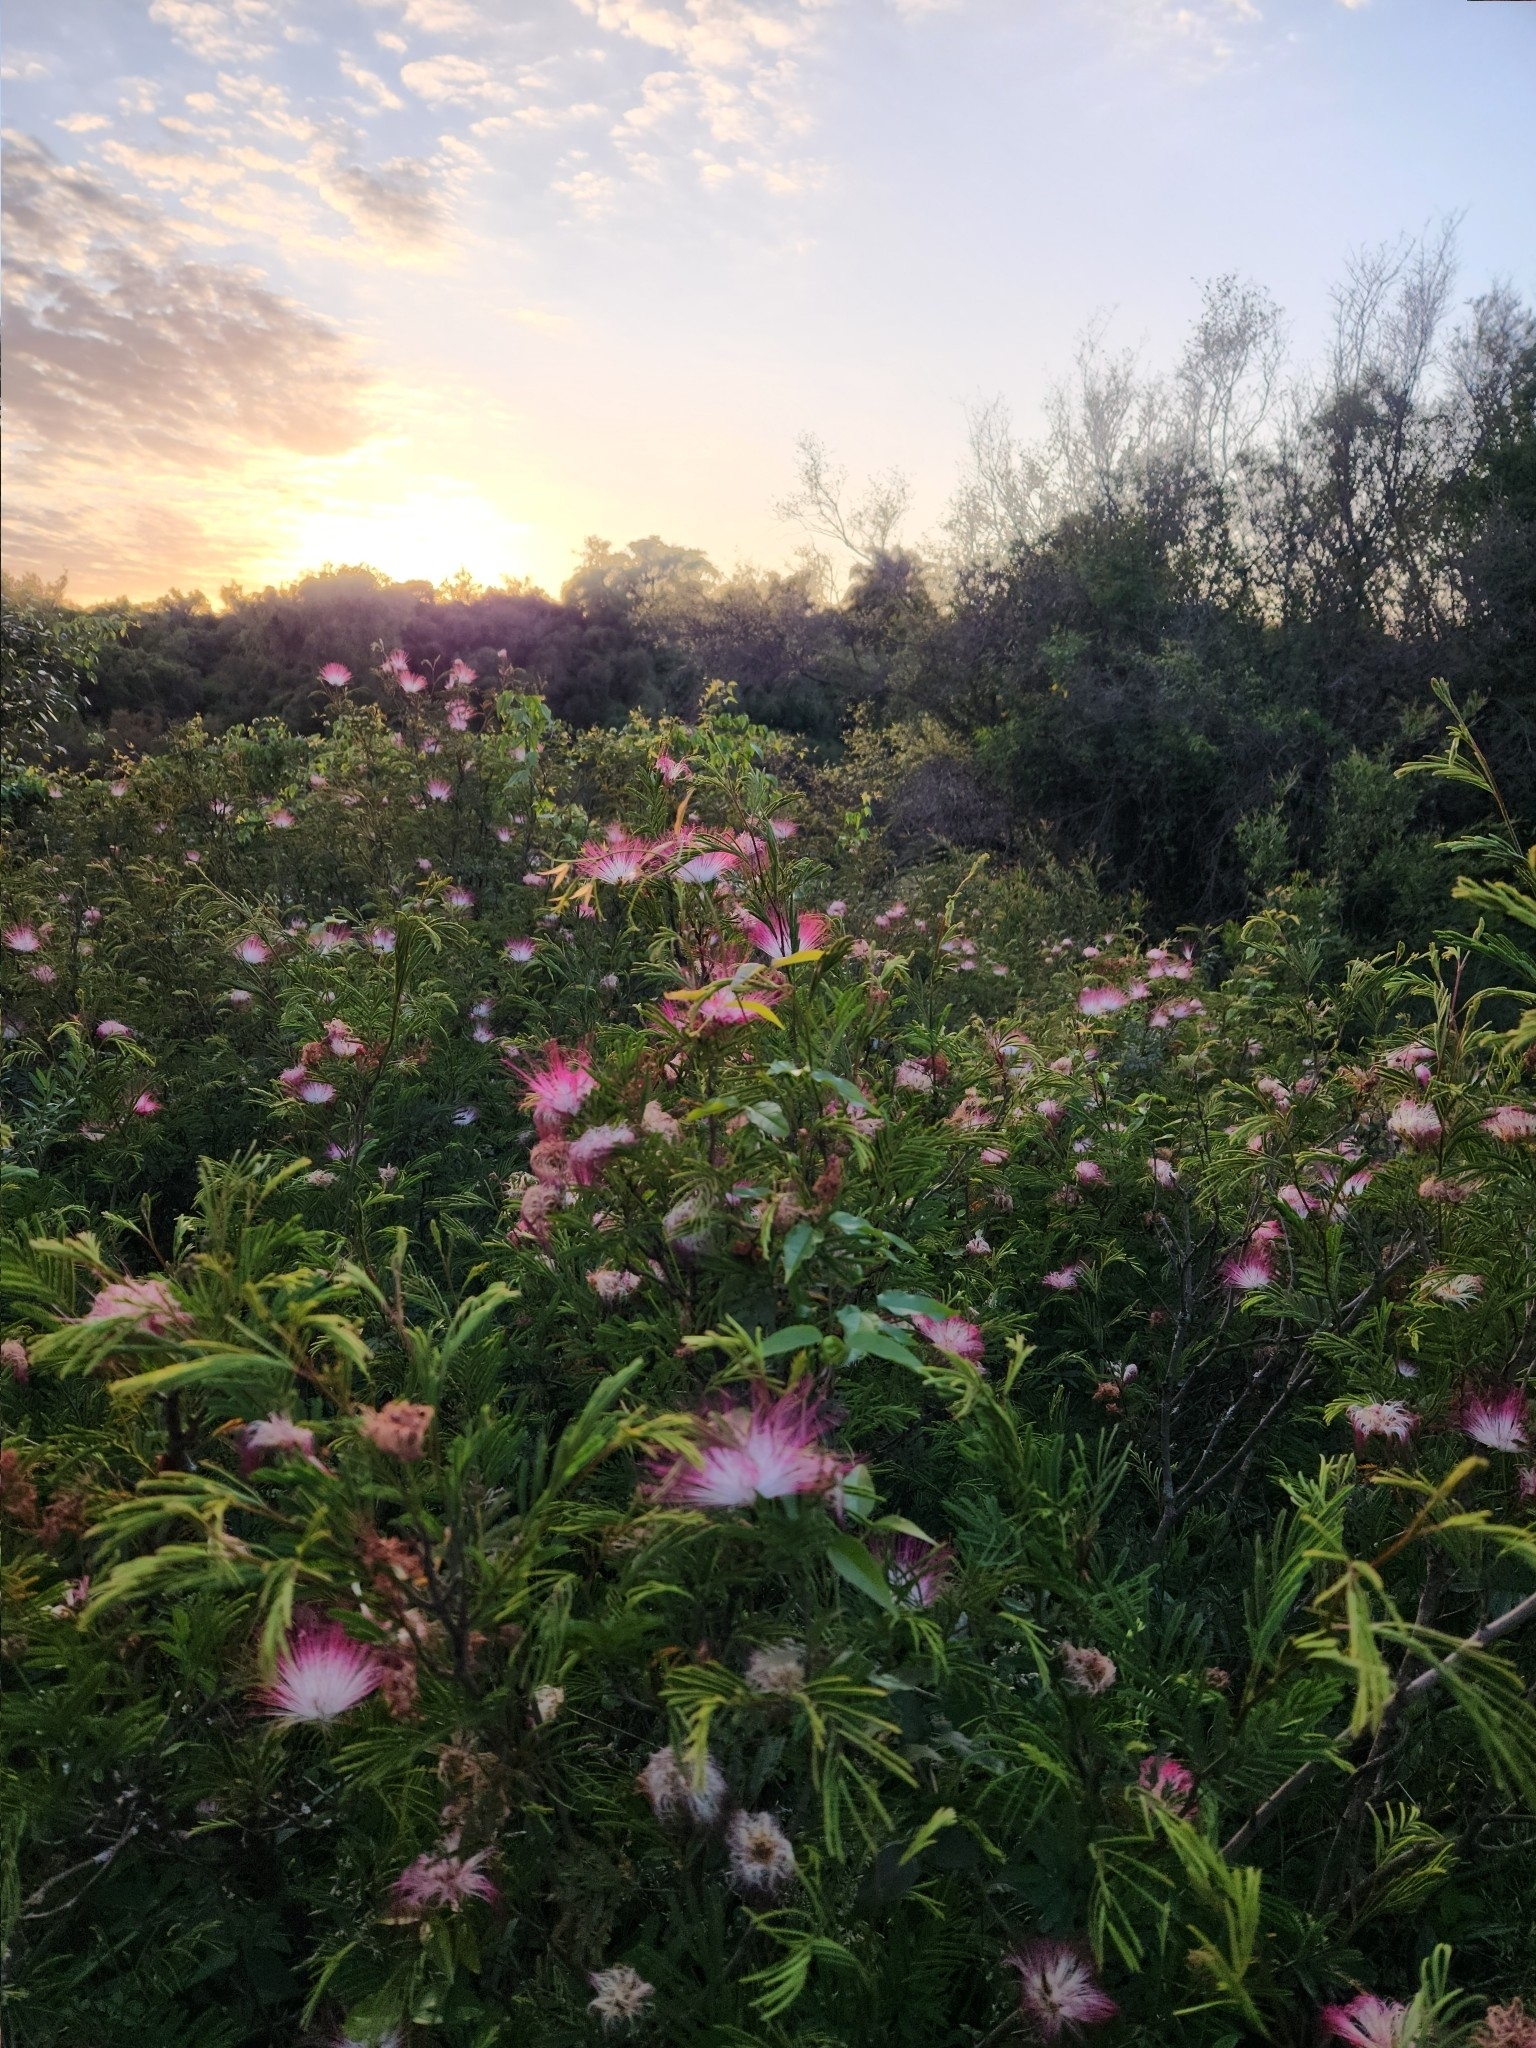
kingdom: Plantae
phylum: Tracheophyta
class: Magnoliopsida
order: Fabales
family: Fabaceae
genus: Calliandra
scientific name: Calliandra parvifolia
